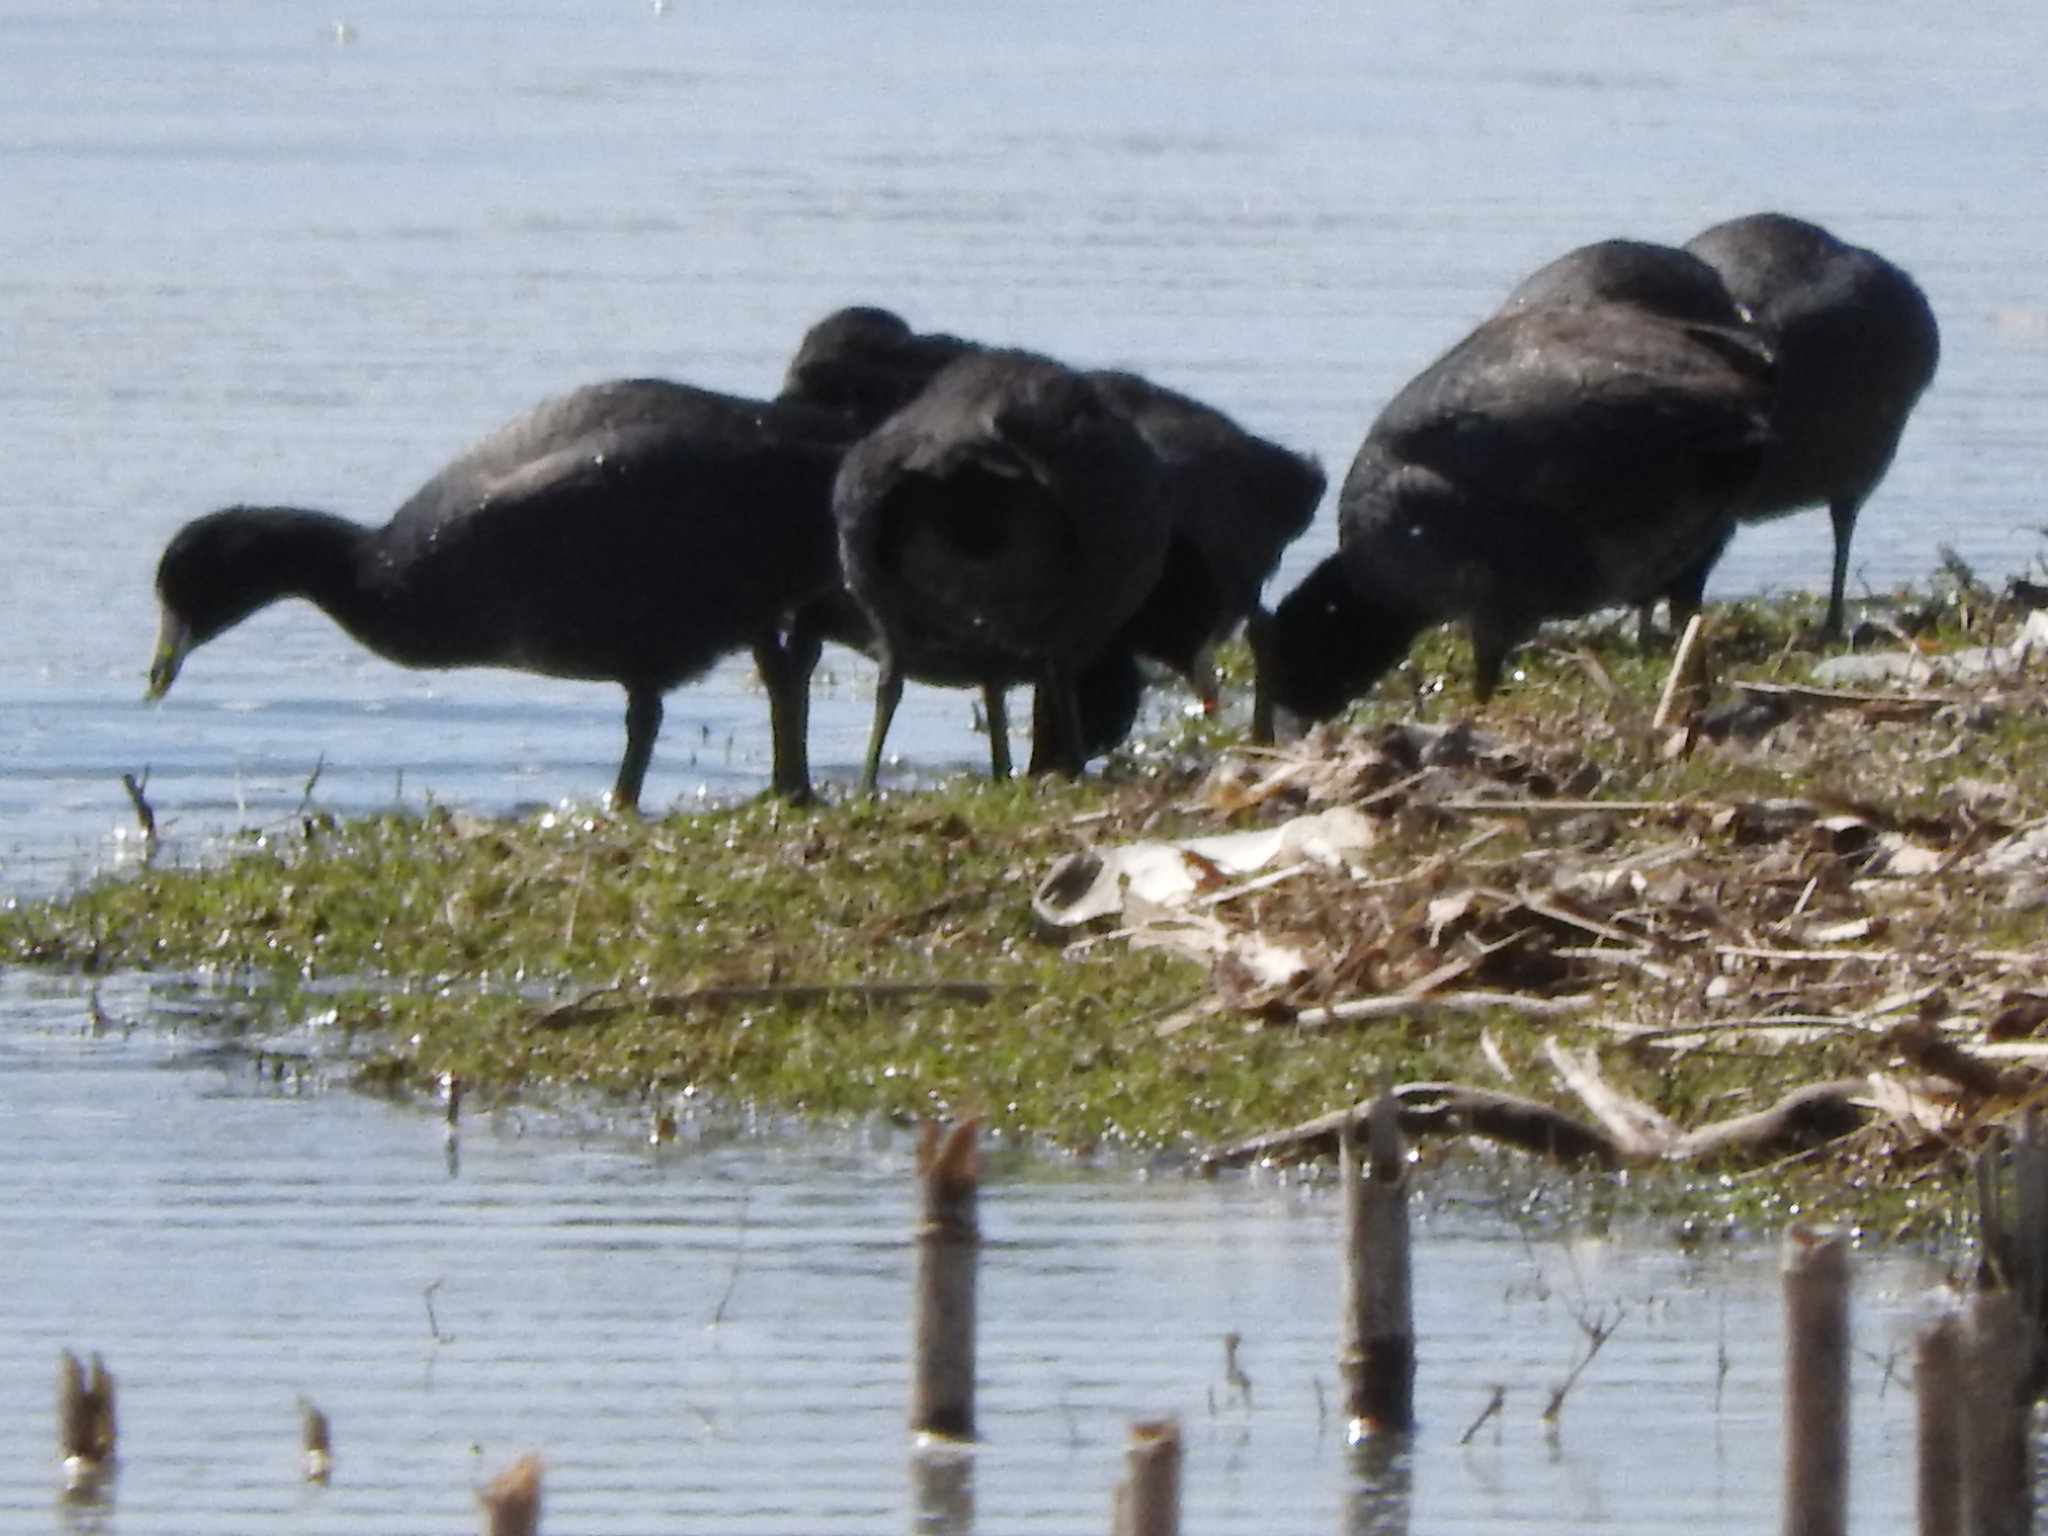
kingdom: Animalia
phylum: Chordata
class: Aves
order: Gruiformes
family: Rallidae
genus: Fulica
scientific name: Fulica americana
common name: American coot
